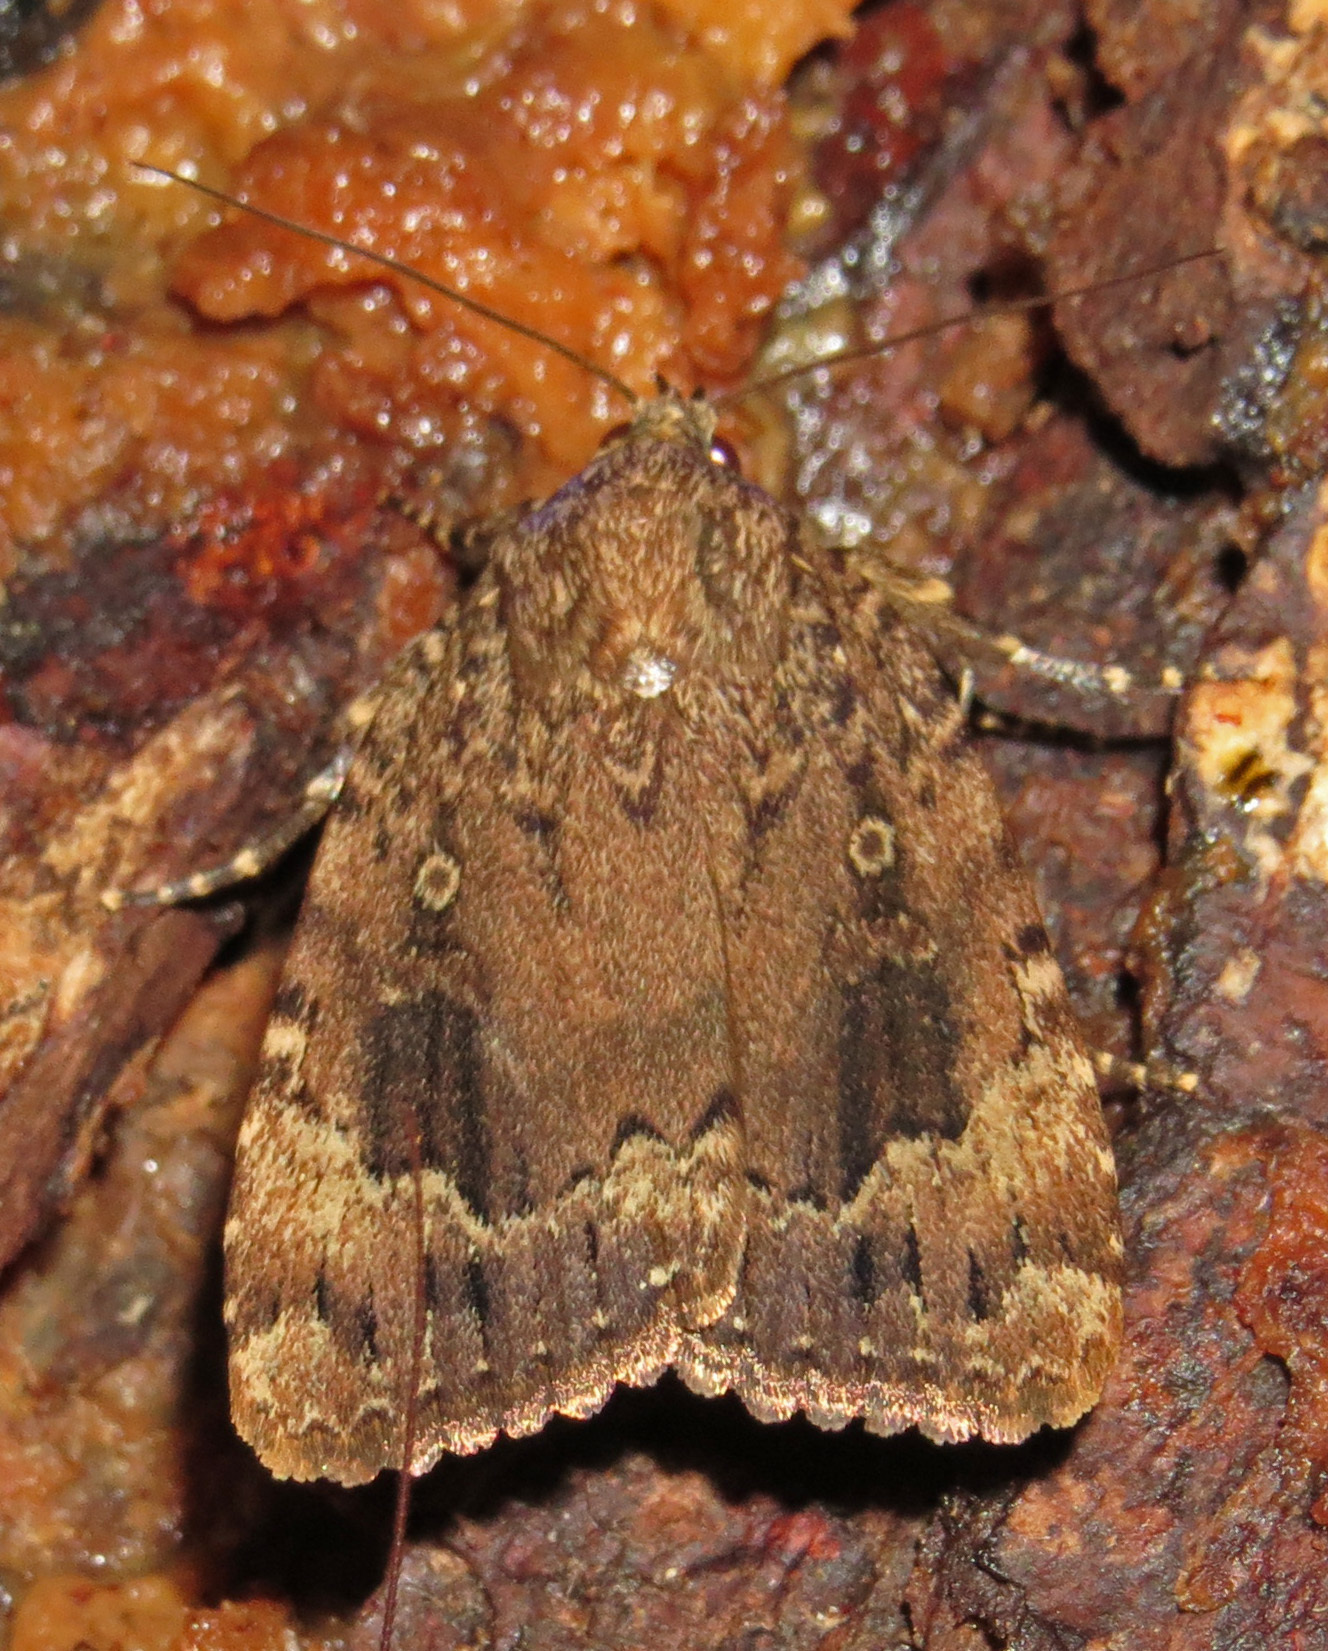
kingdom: Animalia
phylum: Arthropoda
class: Insecta
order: Lepidoptera
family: Noctuidae
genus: Amphipyra
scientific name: Amphipyra pyramidoides
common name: American copper underwing
